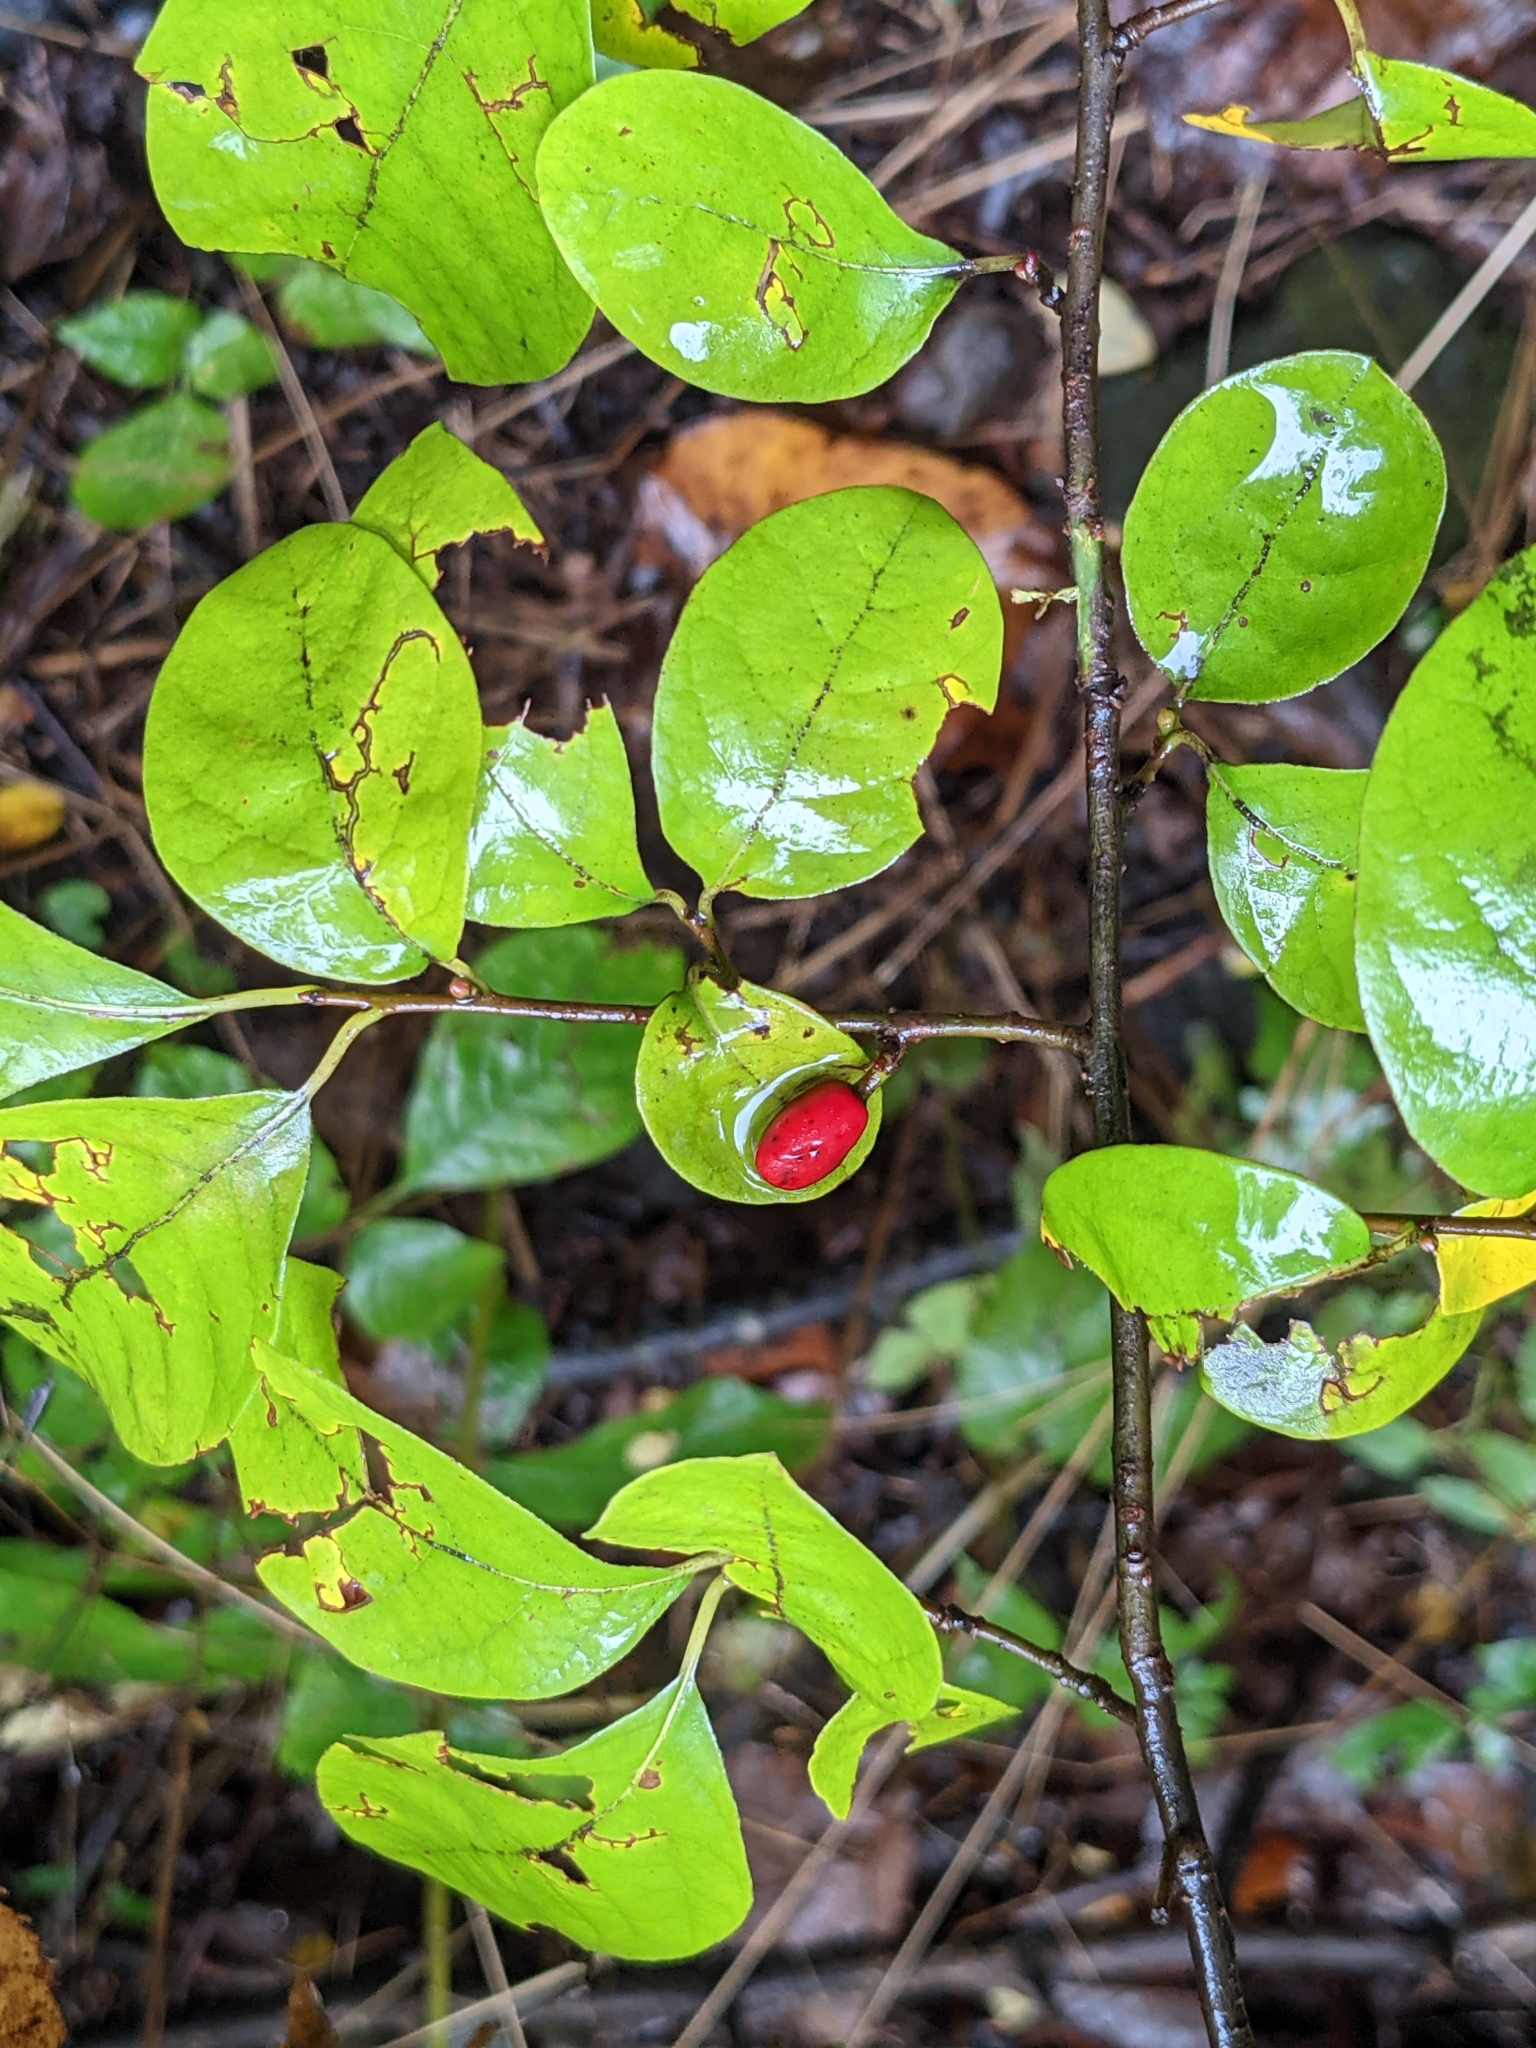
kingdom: Plantae
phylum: Tracheophyta
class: Magnoliopsida
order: Laurales
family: Lauraceae
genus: Lindera
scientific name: Lindera benzoin
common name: Spicebush
